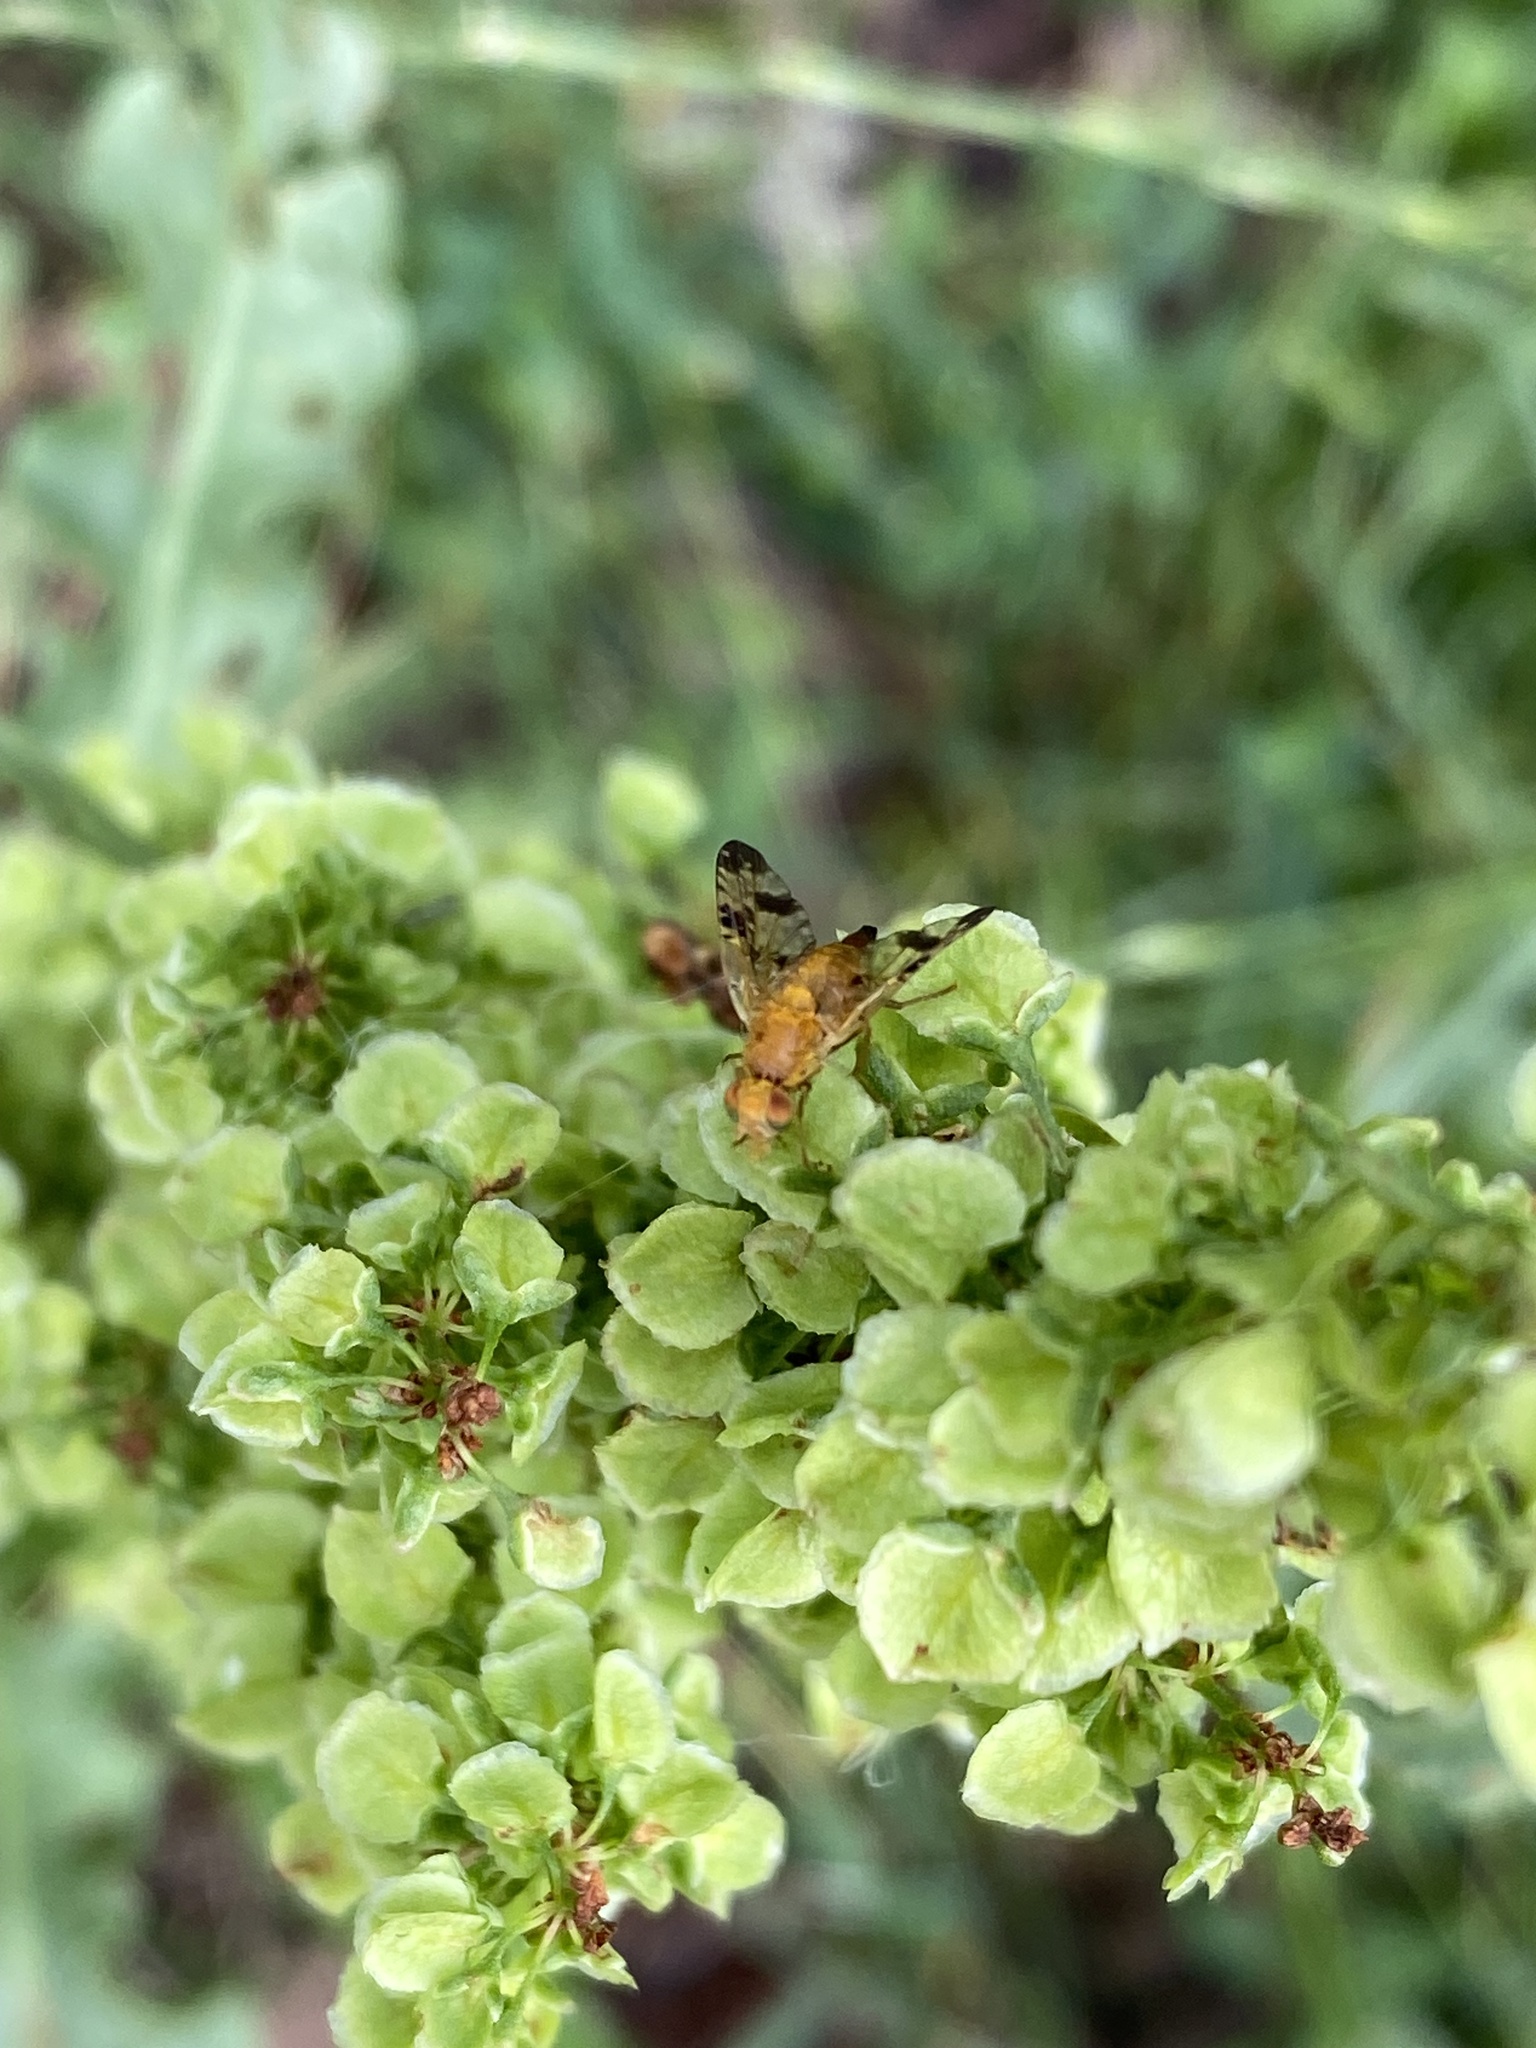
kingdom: Animalia
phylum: Arthropoda
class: Insecta
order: Diptera
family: Tephritidae
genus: Xyphosia
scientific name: Xyphosia miliaria
